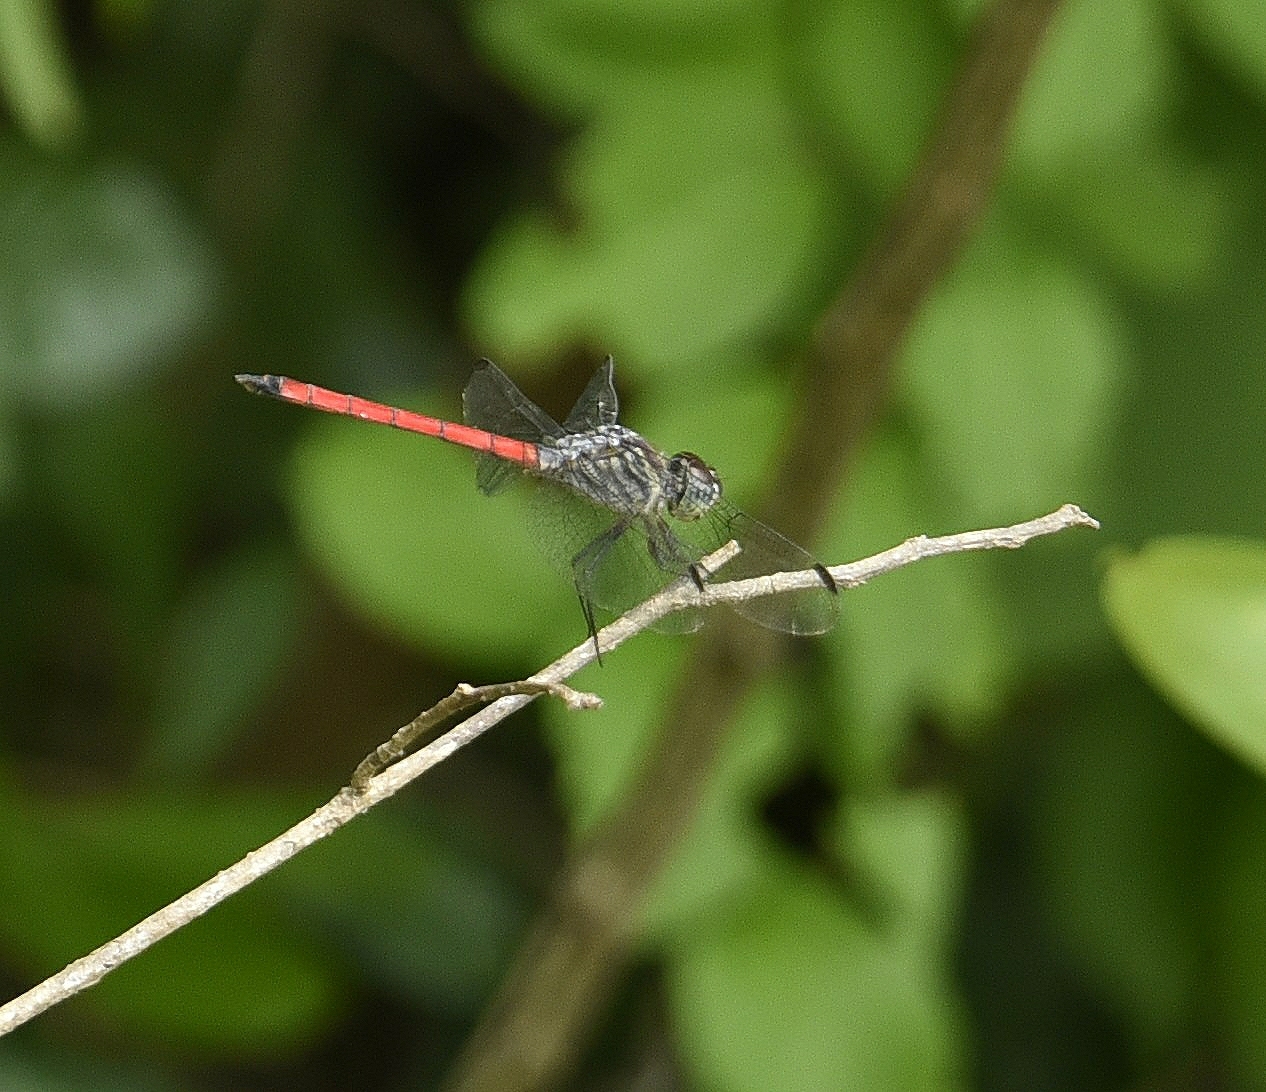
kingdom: Animalia
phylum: Arthropoda
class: Insecta
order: Odonata
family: Libellulidae
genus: Lathrecista
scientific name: Lathrecista asiatica
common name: Scarlet grenadier
